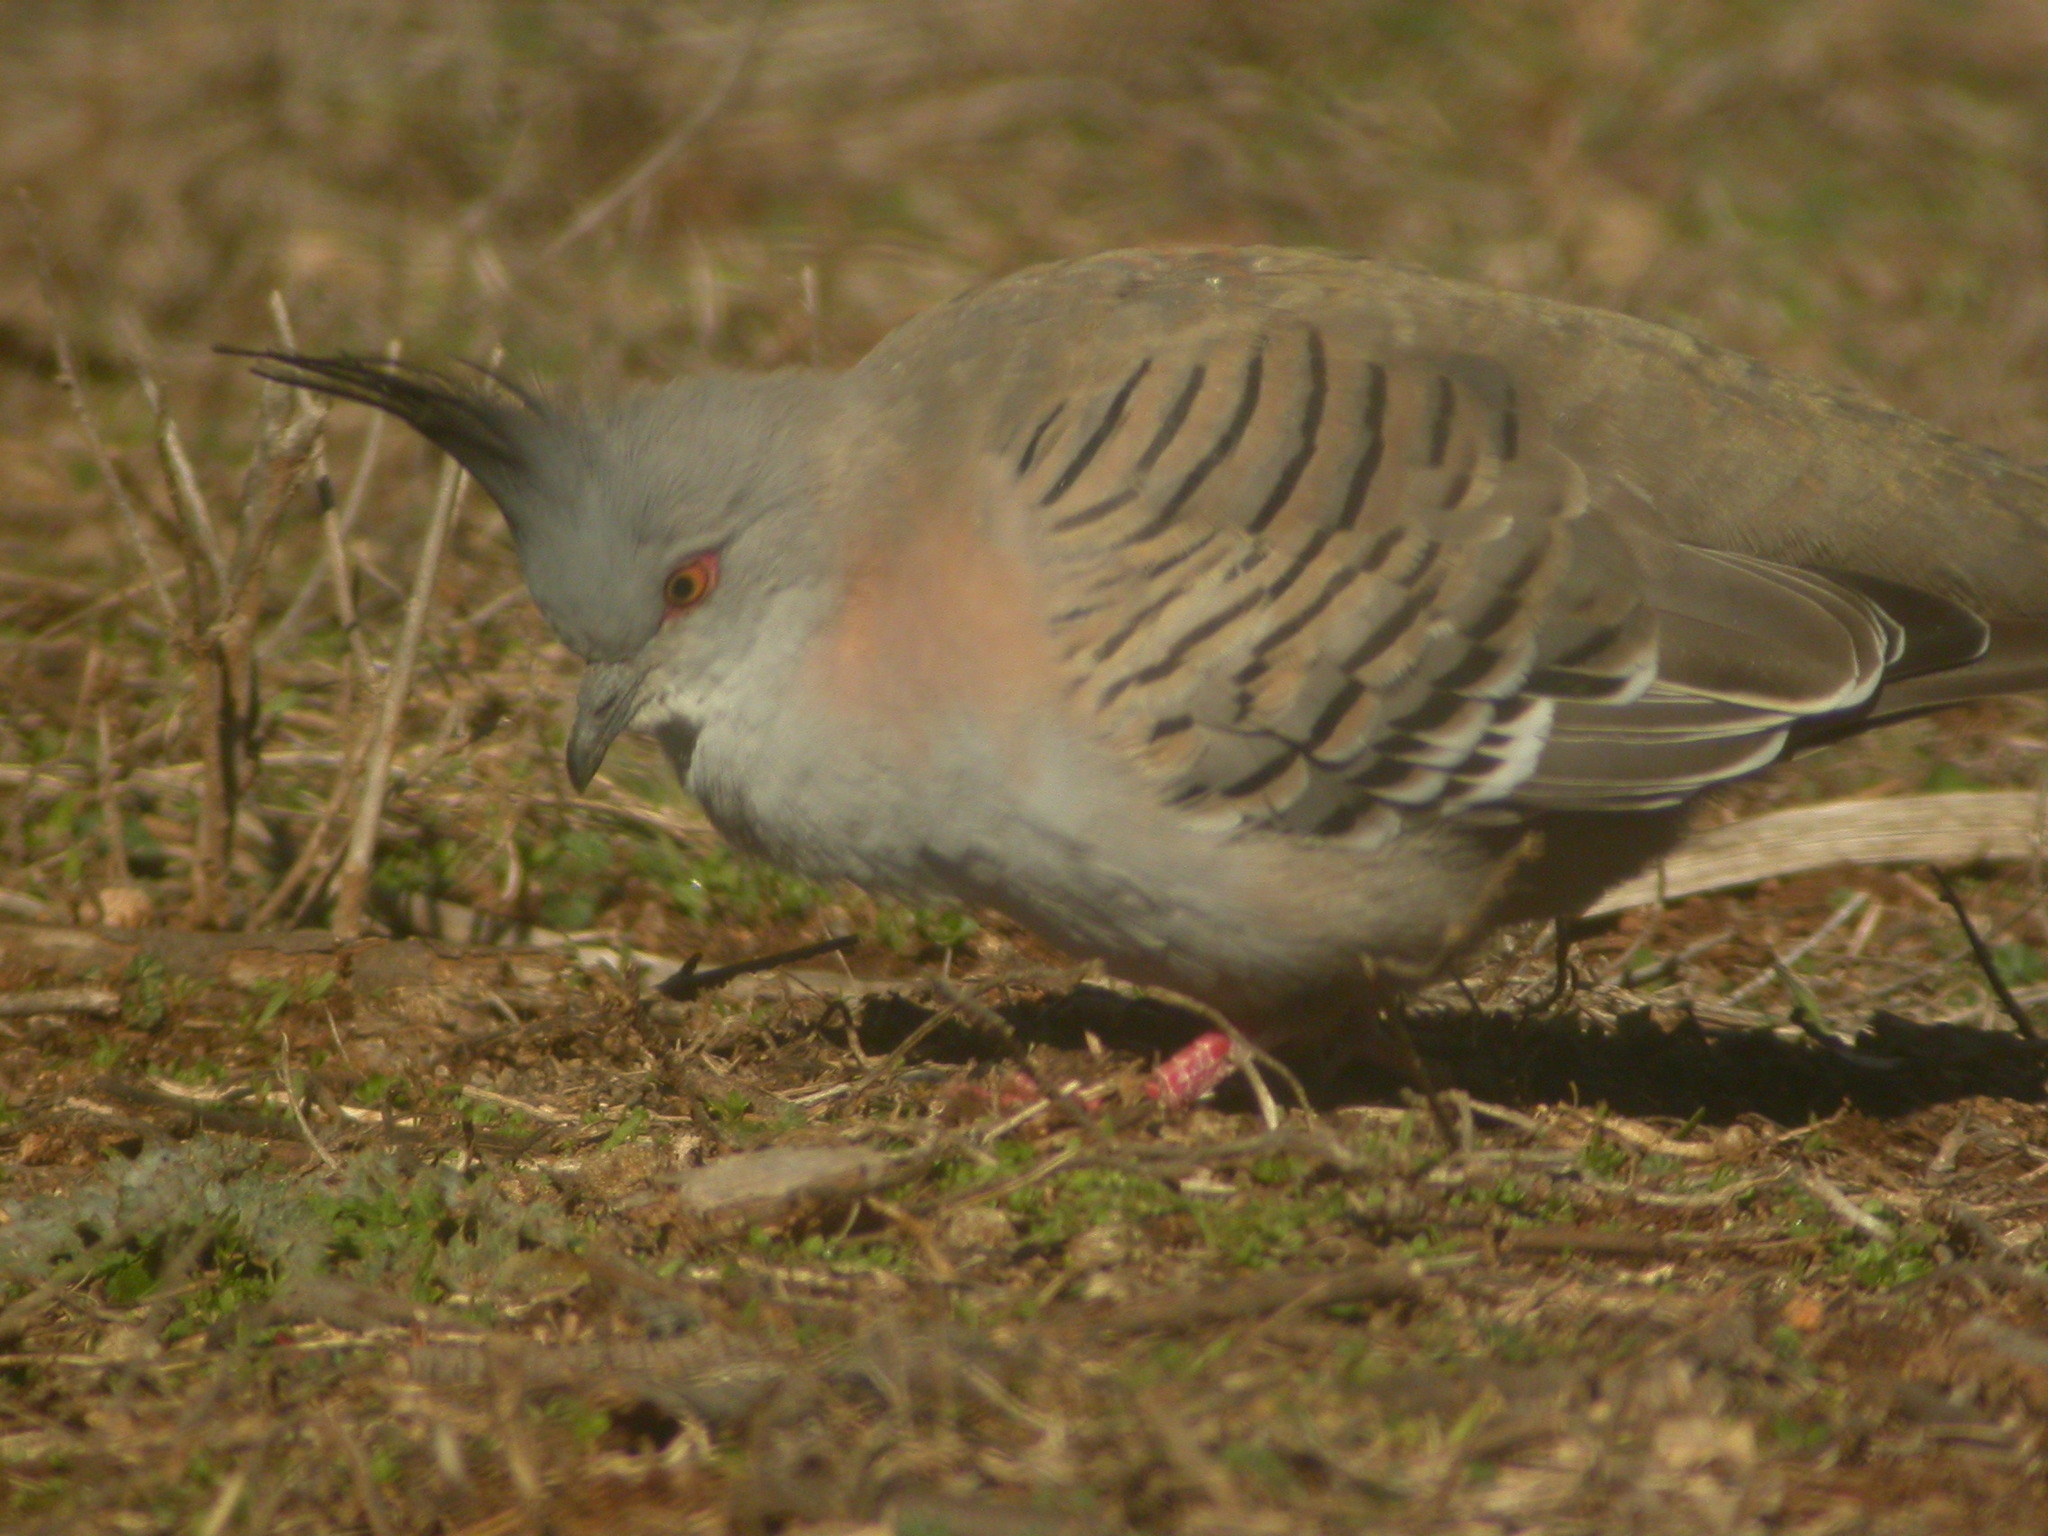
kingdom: Animalia
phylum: Chordata
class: Aves
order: Columbiformes
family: Columbidae
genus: Ocyphaps
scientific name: Ocyphaps lophotes
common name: Crested pigeon
